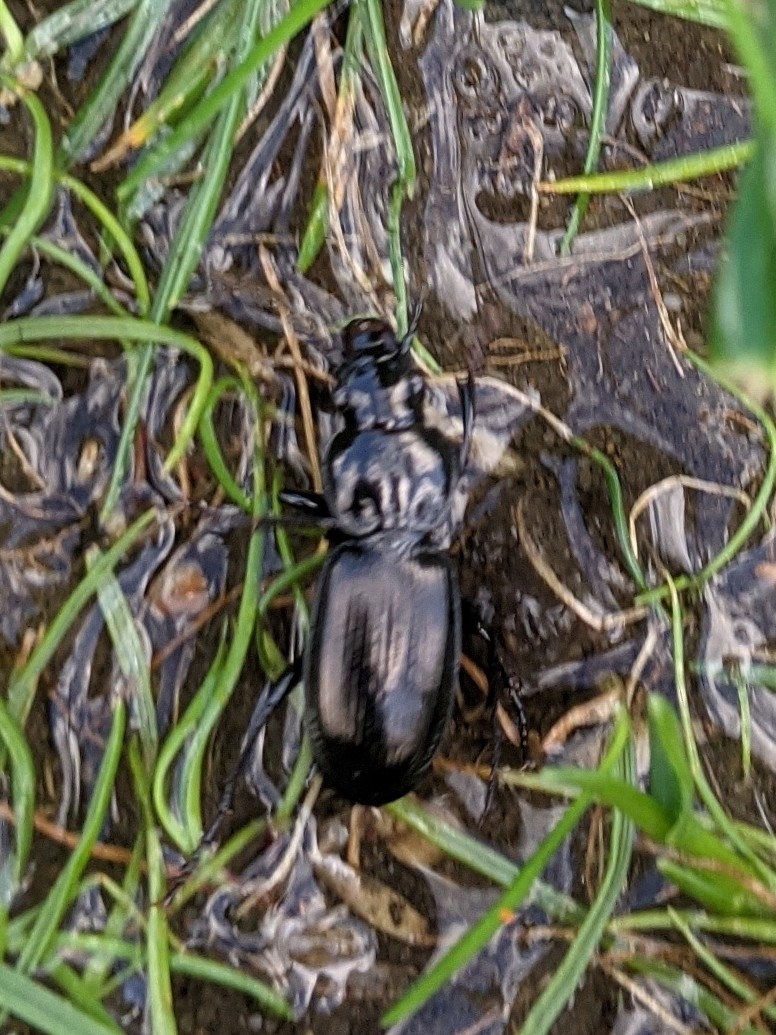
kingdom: Animalia
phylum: Arthropoda
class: Insecta
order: Coleoptera
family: Carabidae
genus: Pterostichus
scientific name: Pterostichus madidus
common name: Black clock
